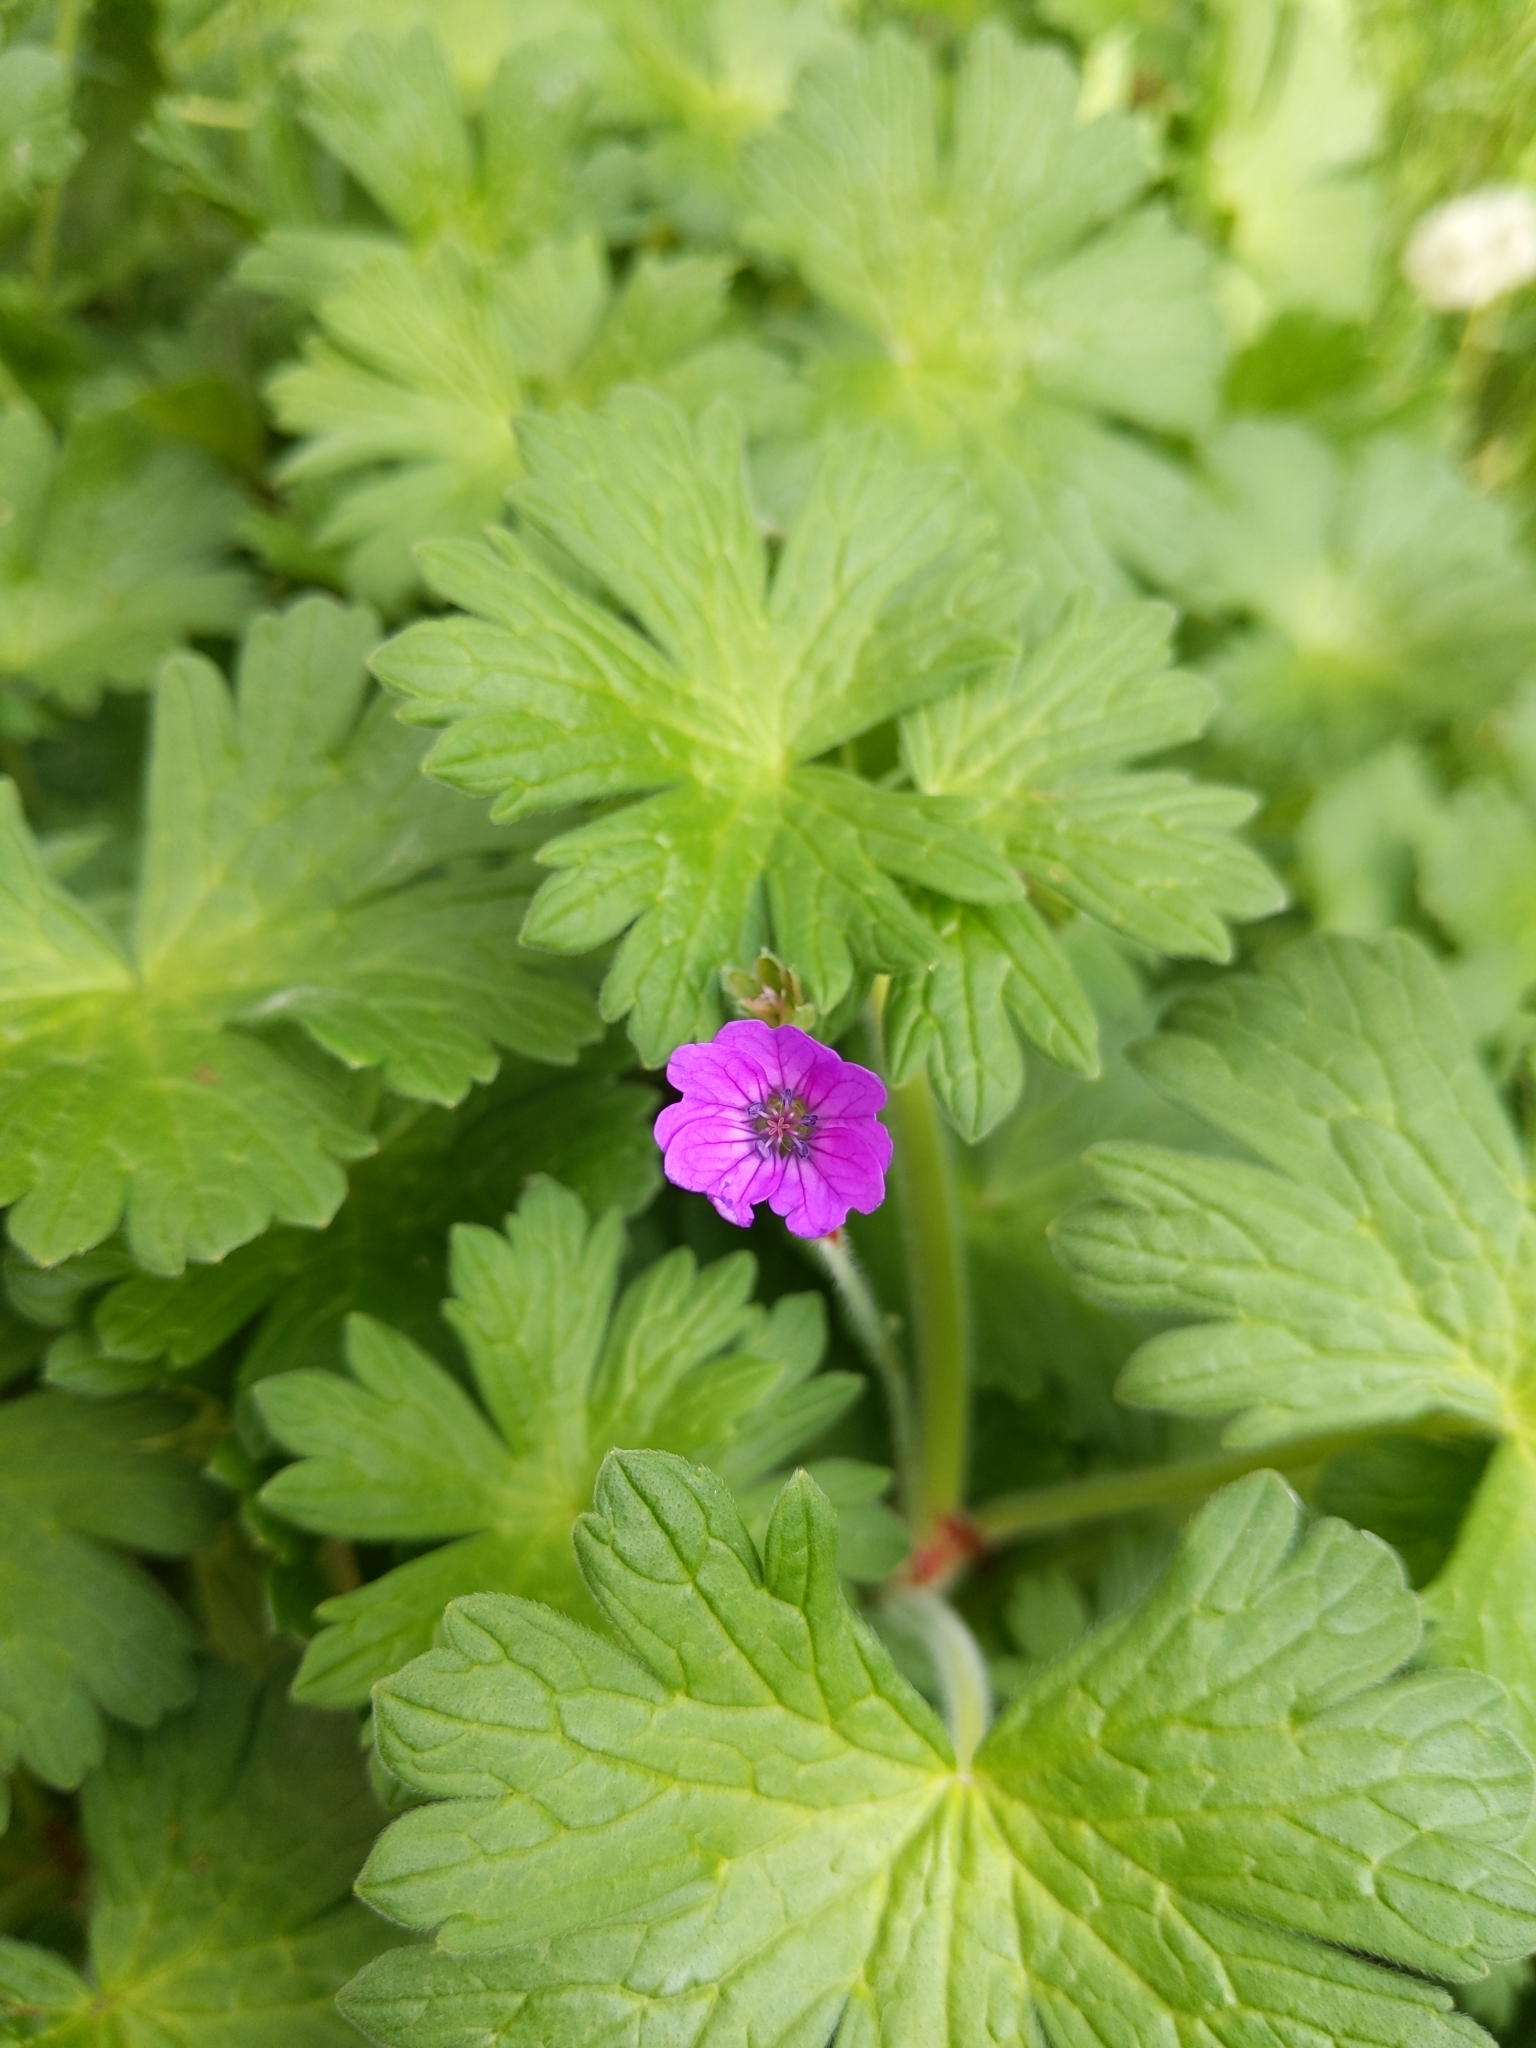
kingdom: Plantae
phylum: Tracheophyta
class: Magnoliopsida
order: Geraniales
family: Geraniaceae
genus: Geranium
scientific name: Geranium molle
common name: Dove's-foot crane's-bill
